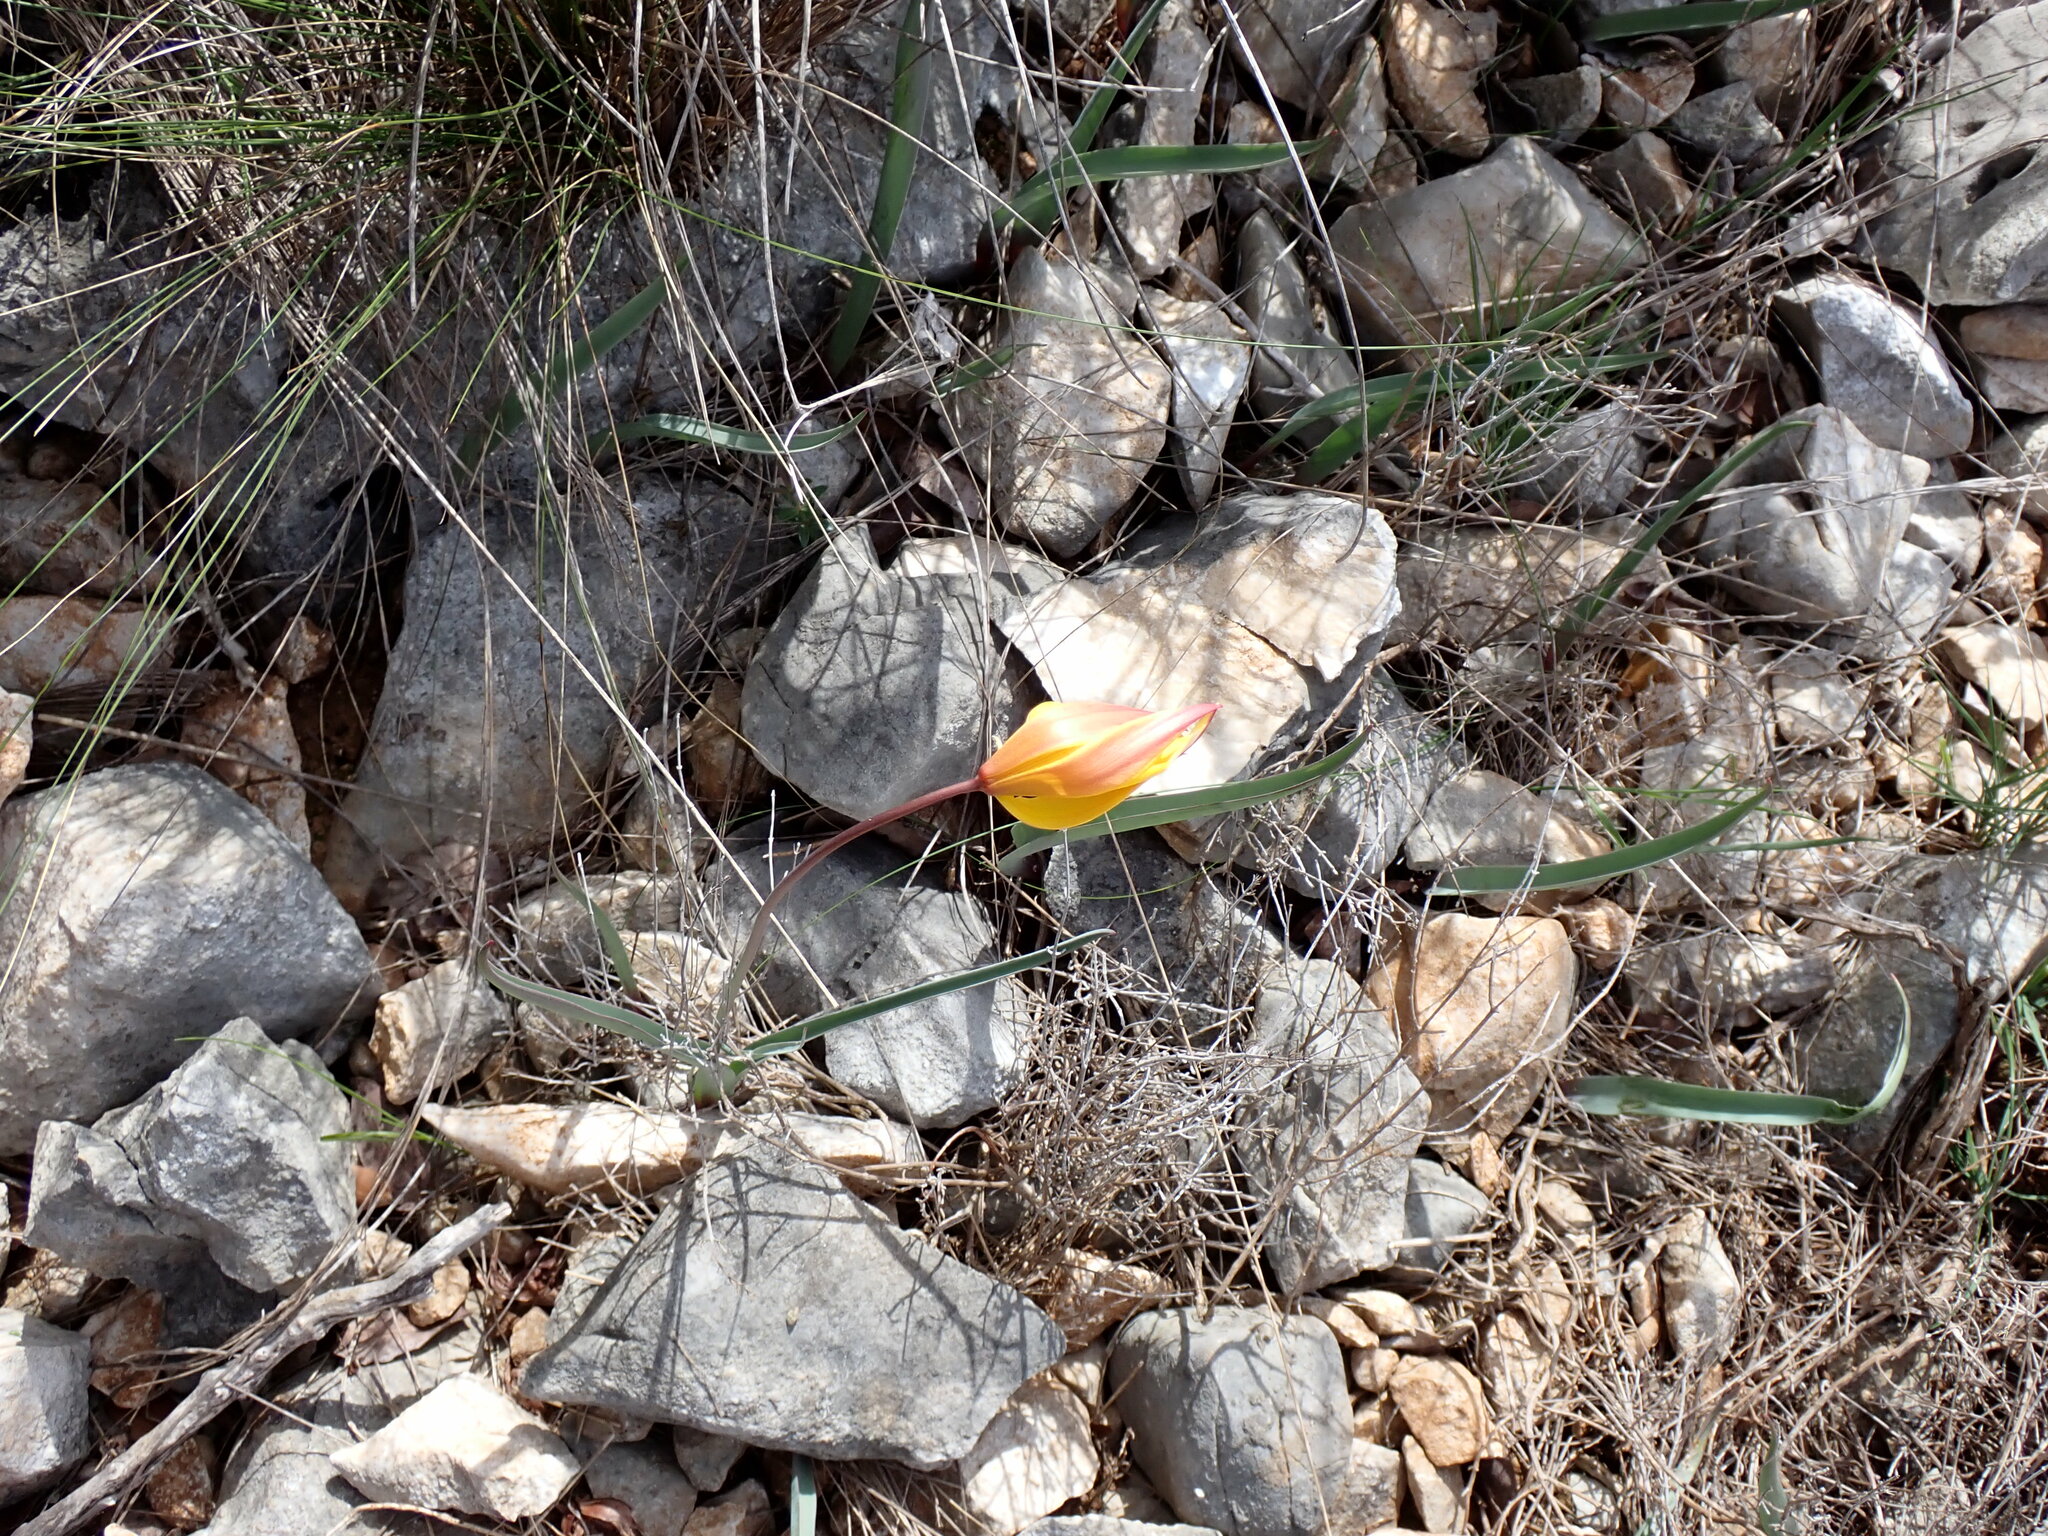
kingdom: Plantae
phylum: Tracheophyta
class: Liliopsida
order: Liliales
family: Liliaceae
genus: Tulipa
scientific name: Tulipa sylvestris
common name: Wild tulip
